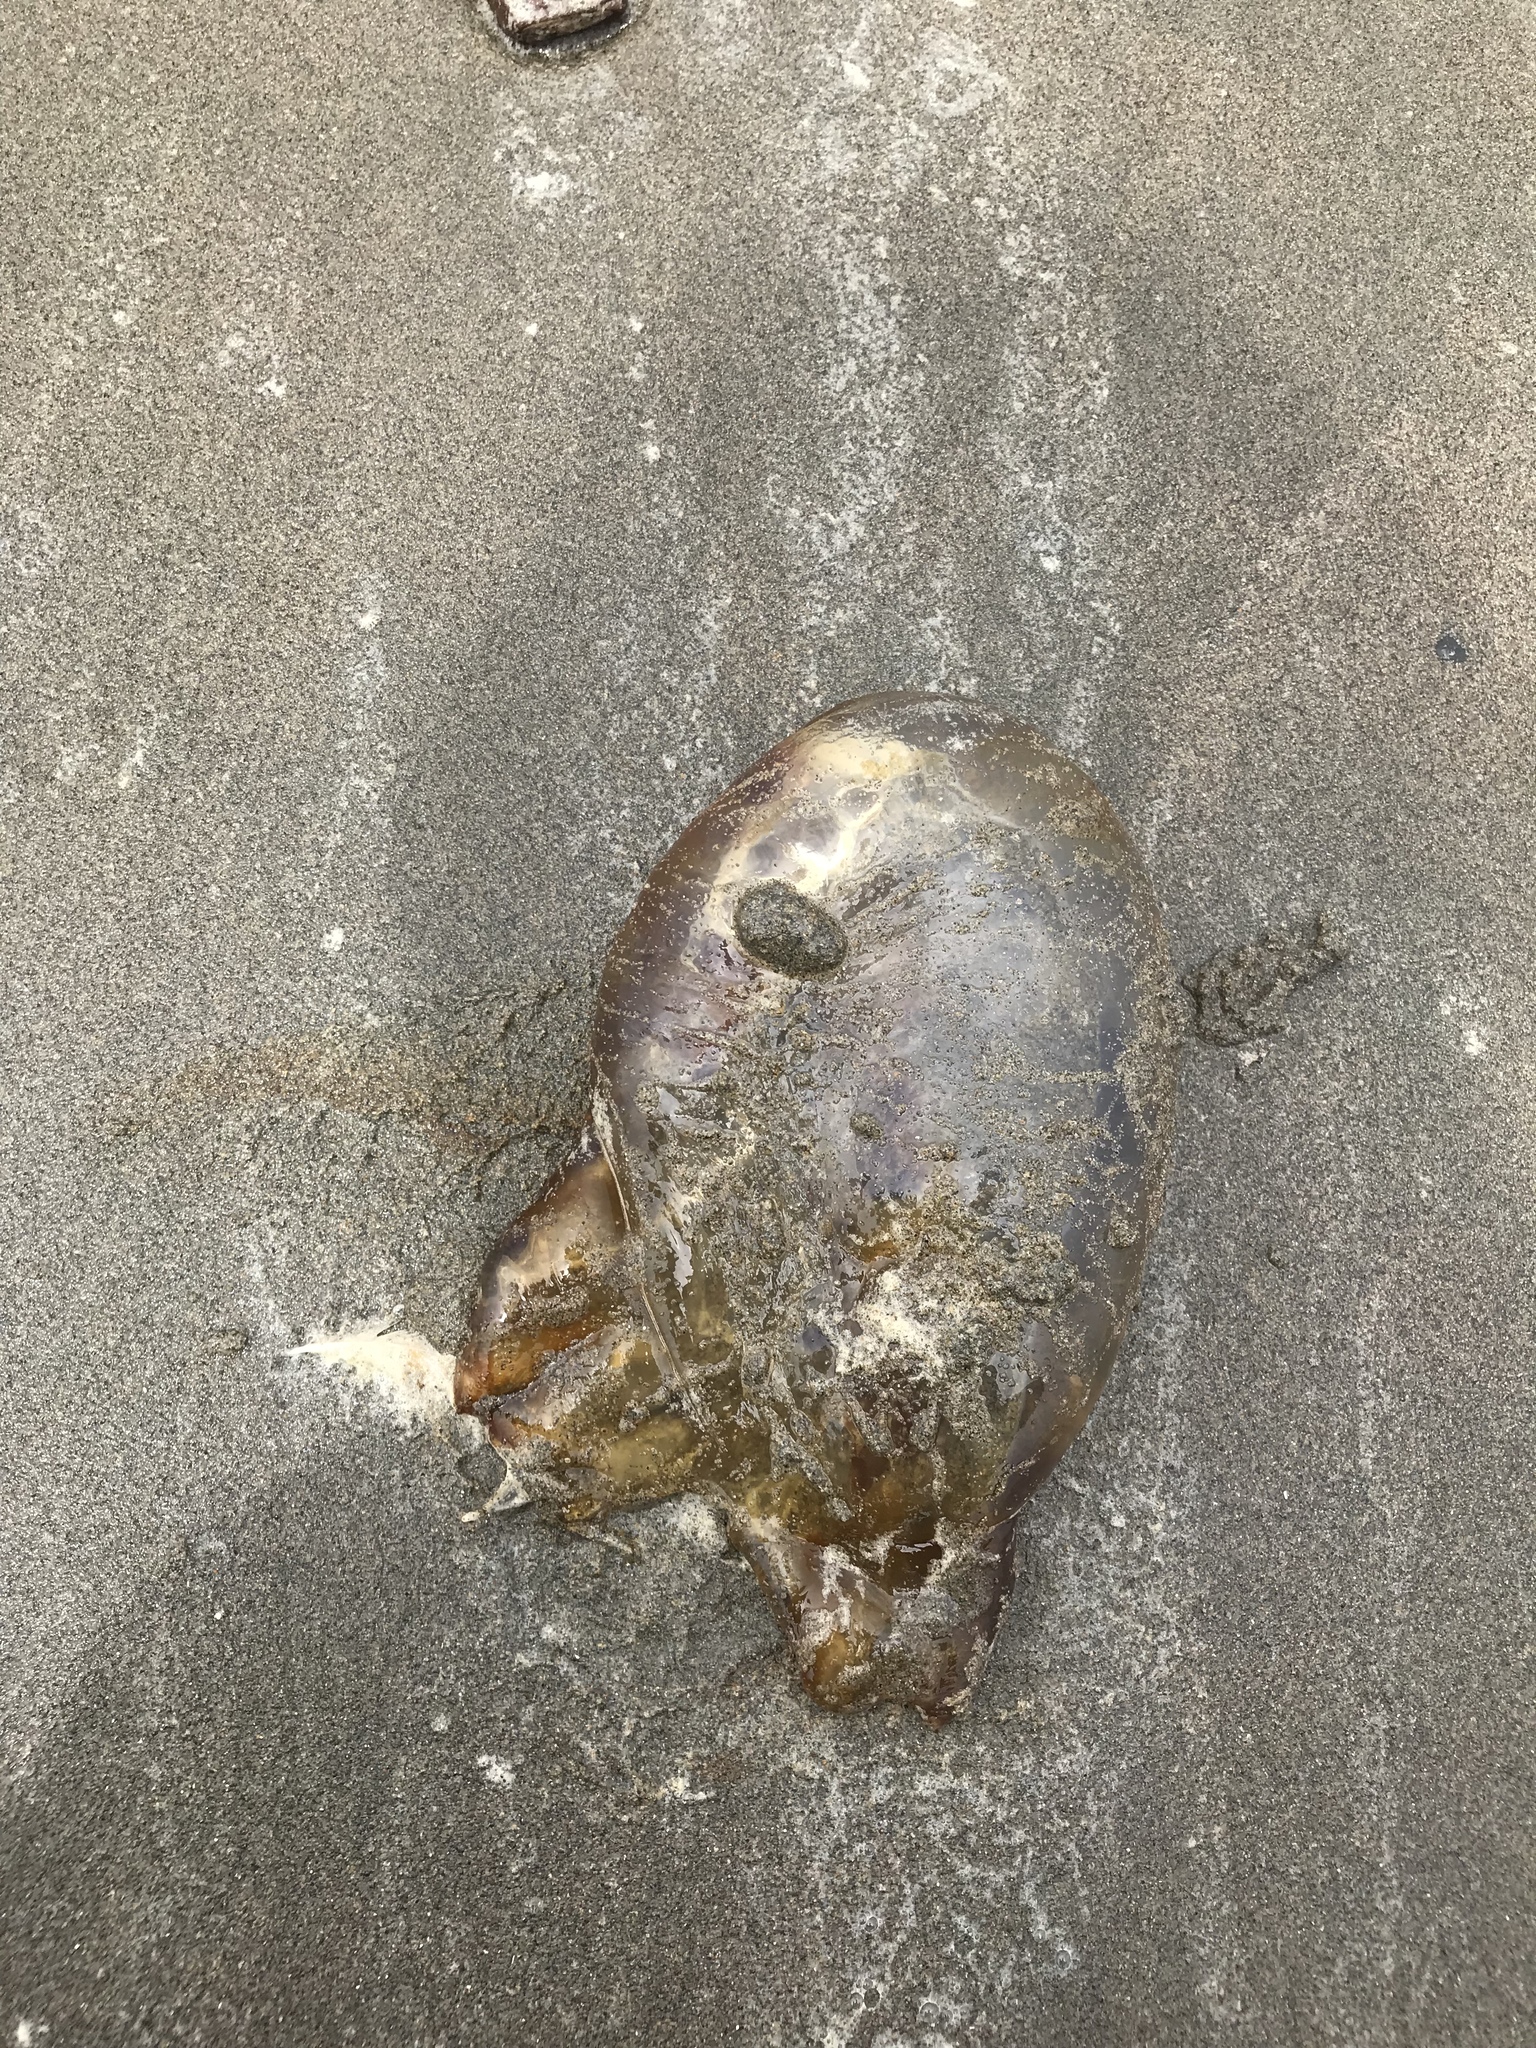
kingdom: Animalia
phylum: Cnidaria
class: Scyphozoa
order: Semaeostomeae
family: Pelagiidae
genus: Chrysaora
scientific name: Chrysaora fuscescens
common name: Sea nettle
